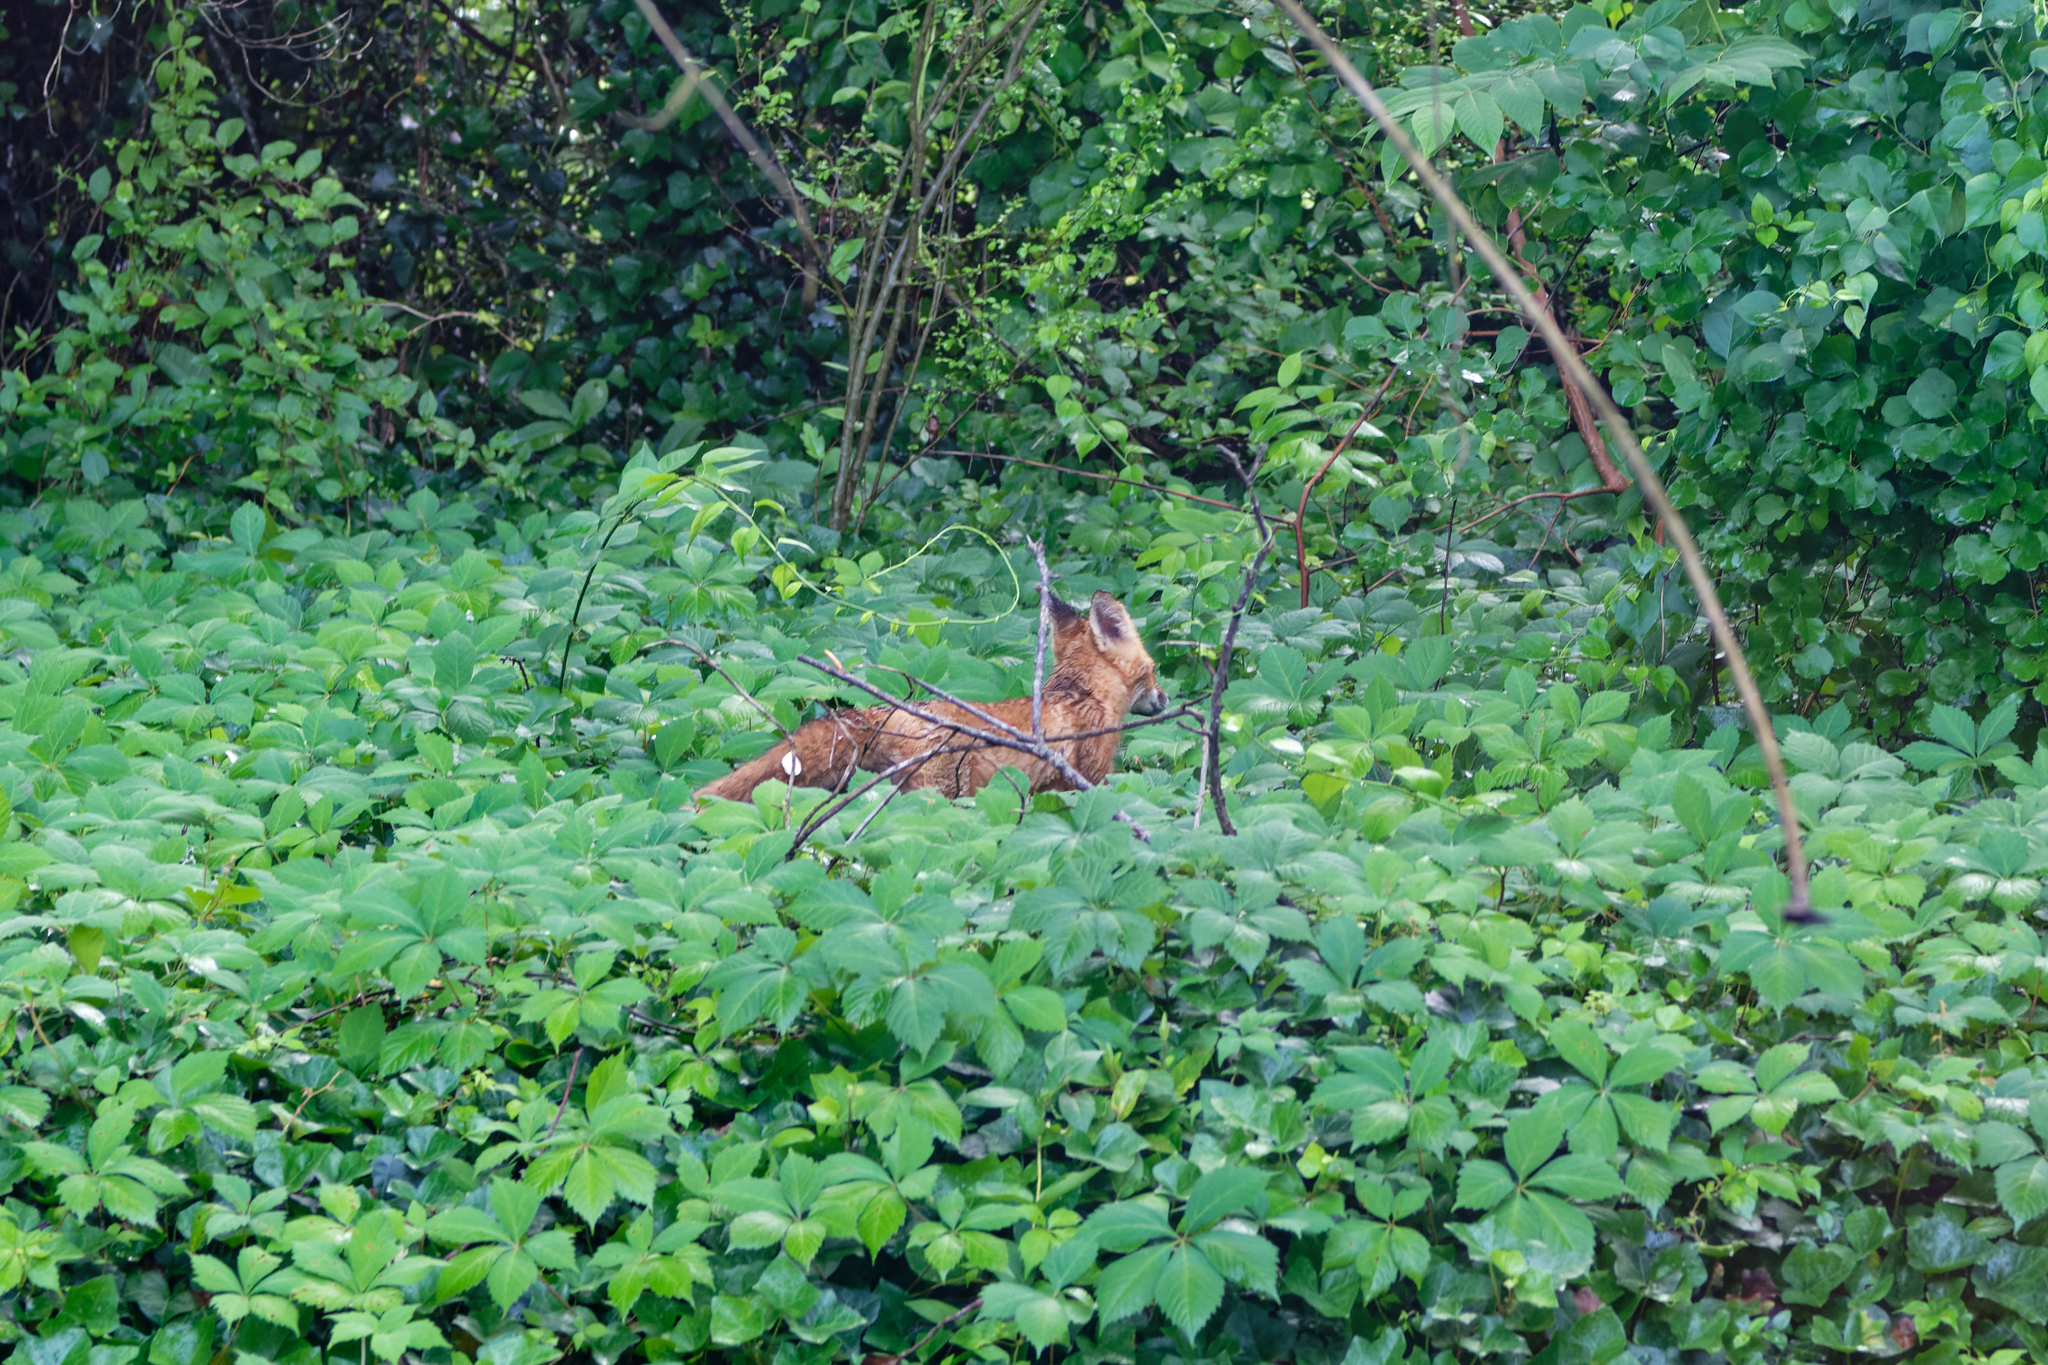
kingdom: Animalia
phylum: Chordata
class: Mammalia
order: Carnivora
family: Canidae
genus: Vulpes
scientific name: Vulpes vulpes
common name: Red fox
